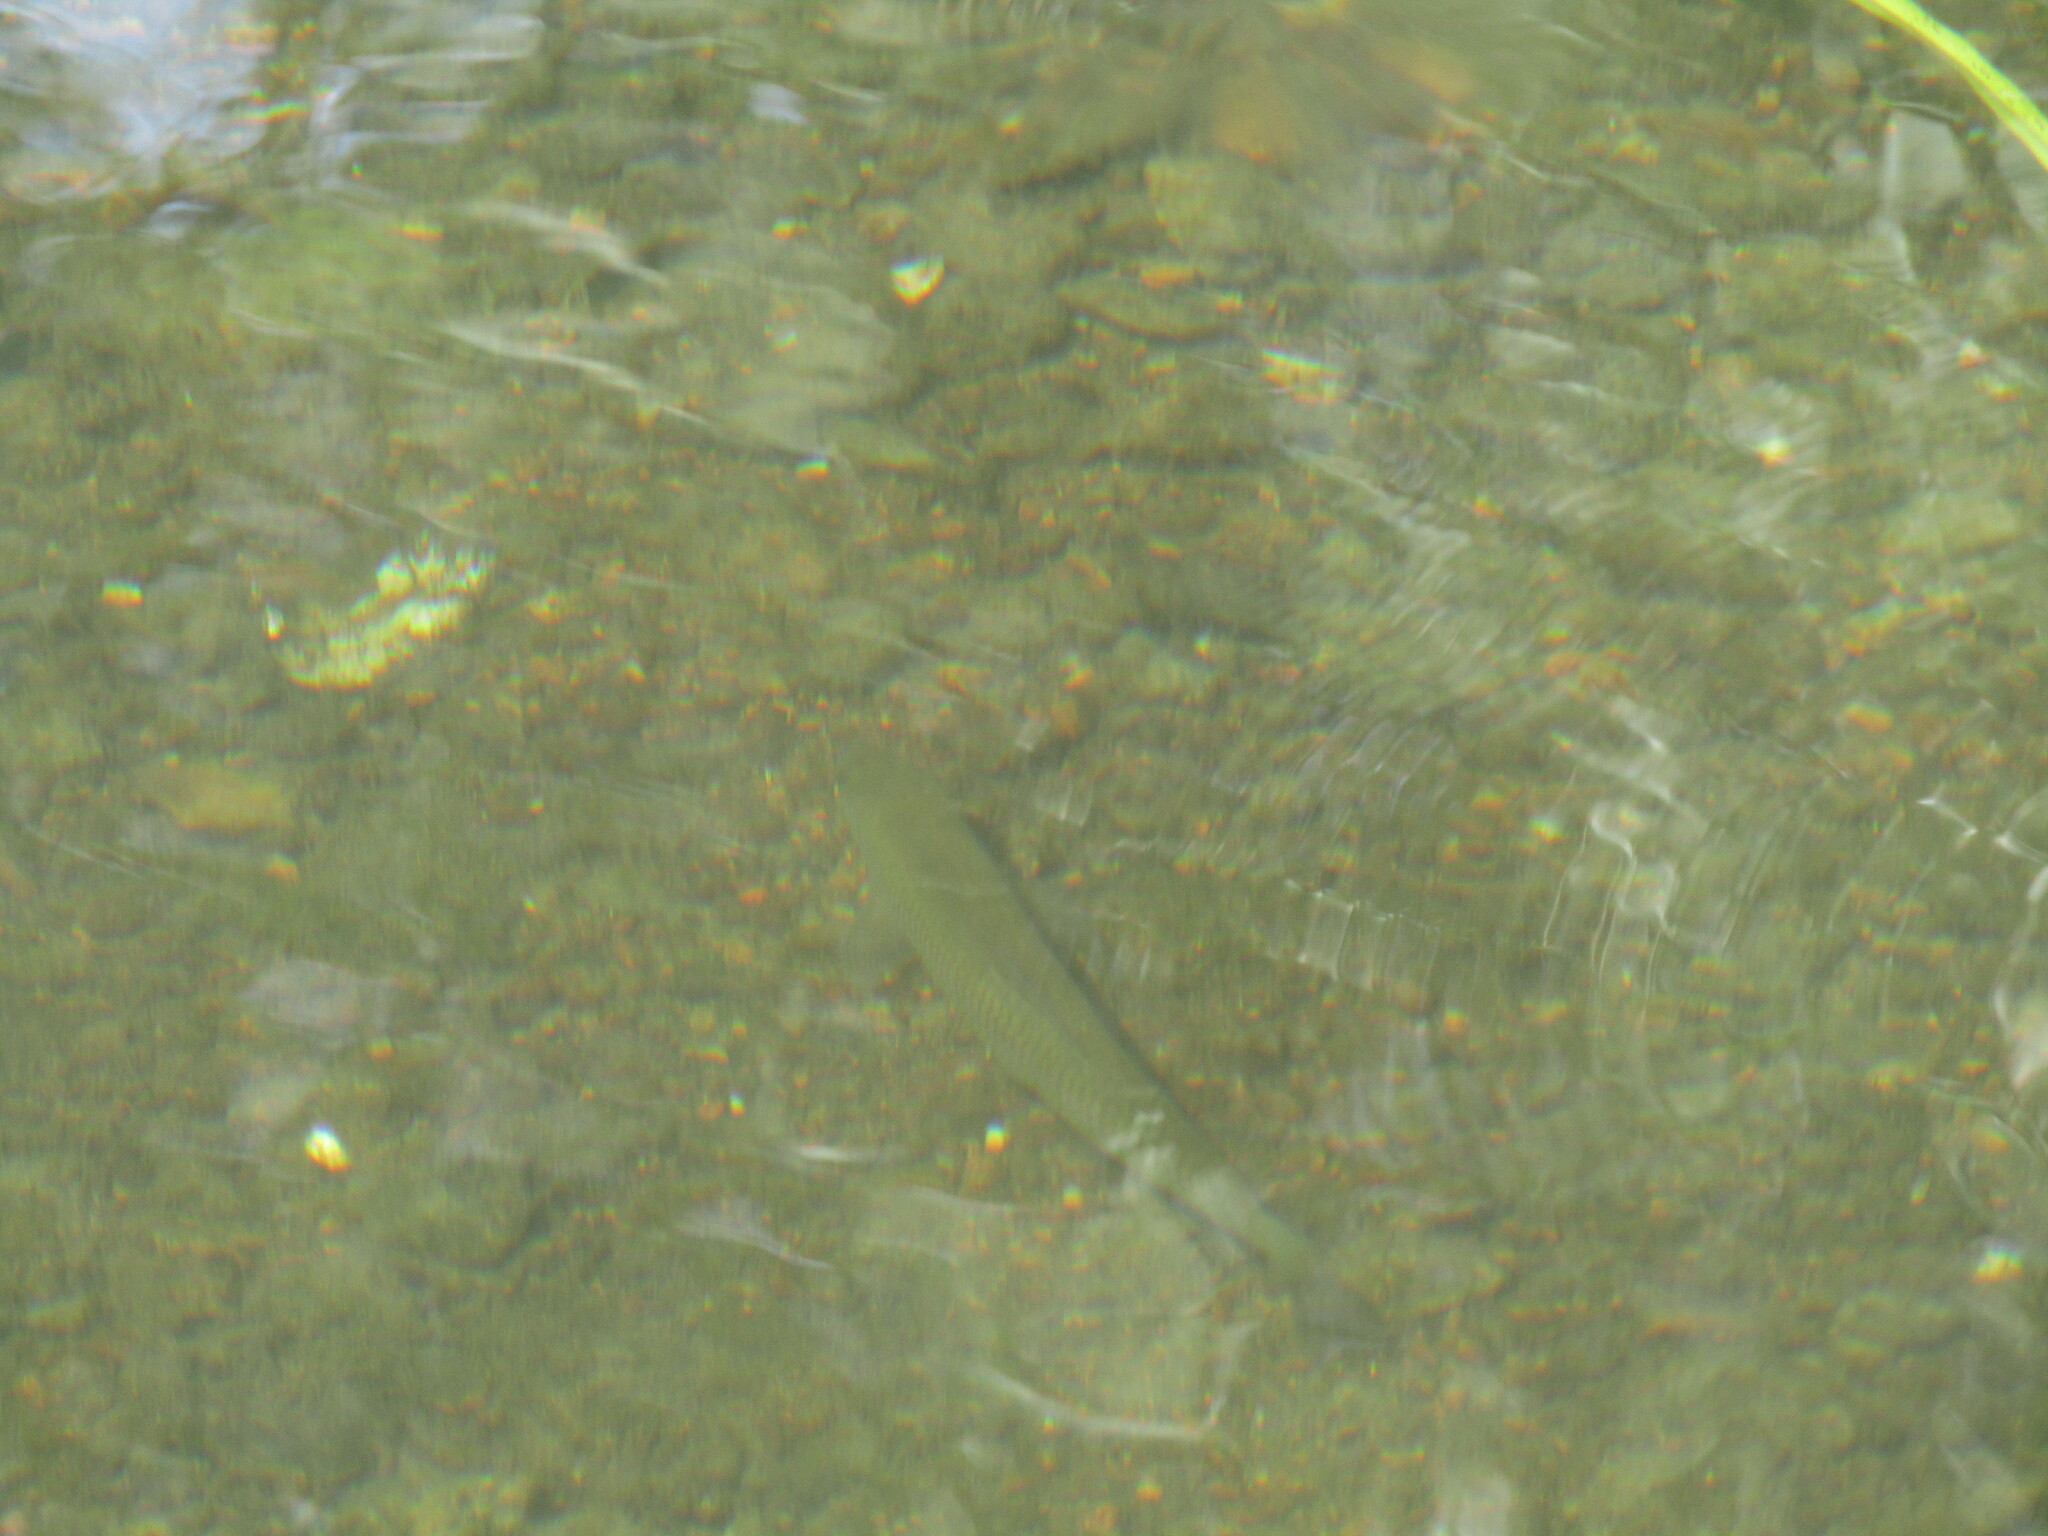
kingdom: Animalia
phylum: Chordata
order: Cypriniformes
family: Cyprinidae
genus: Squalius
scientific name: Squalius cephalus
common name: Chub
